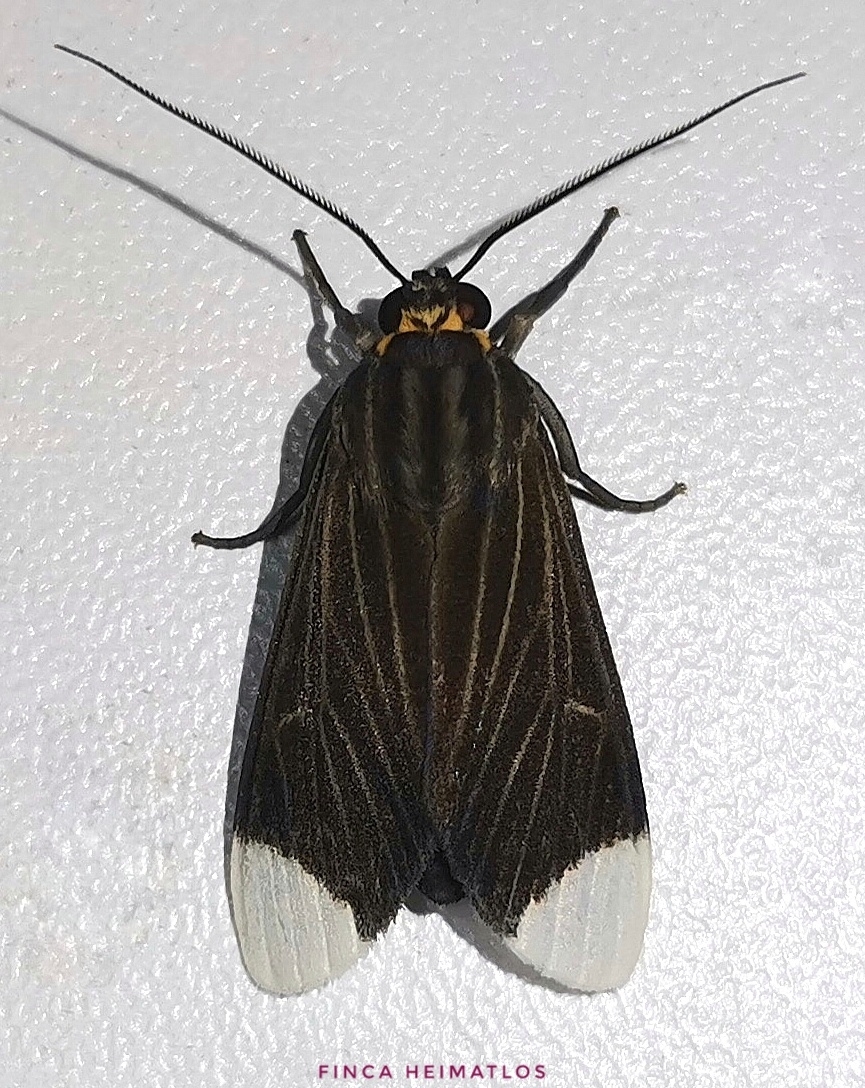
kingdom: Animalia
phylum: Arthropoda
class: Insecta
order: Lepidoptera
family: Erebidae
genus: Episcepsis
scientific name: Episcepsis capyscoides
